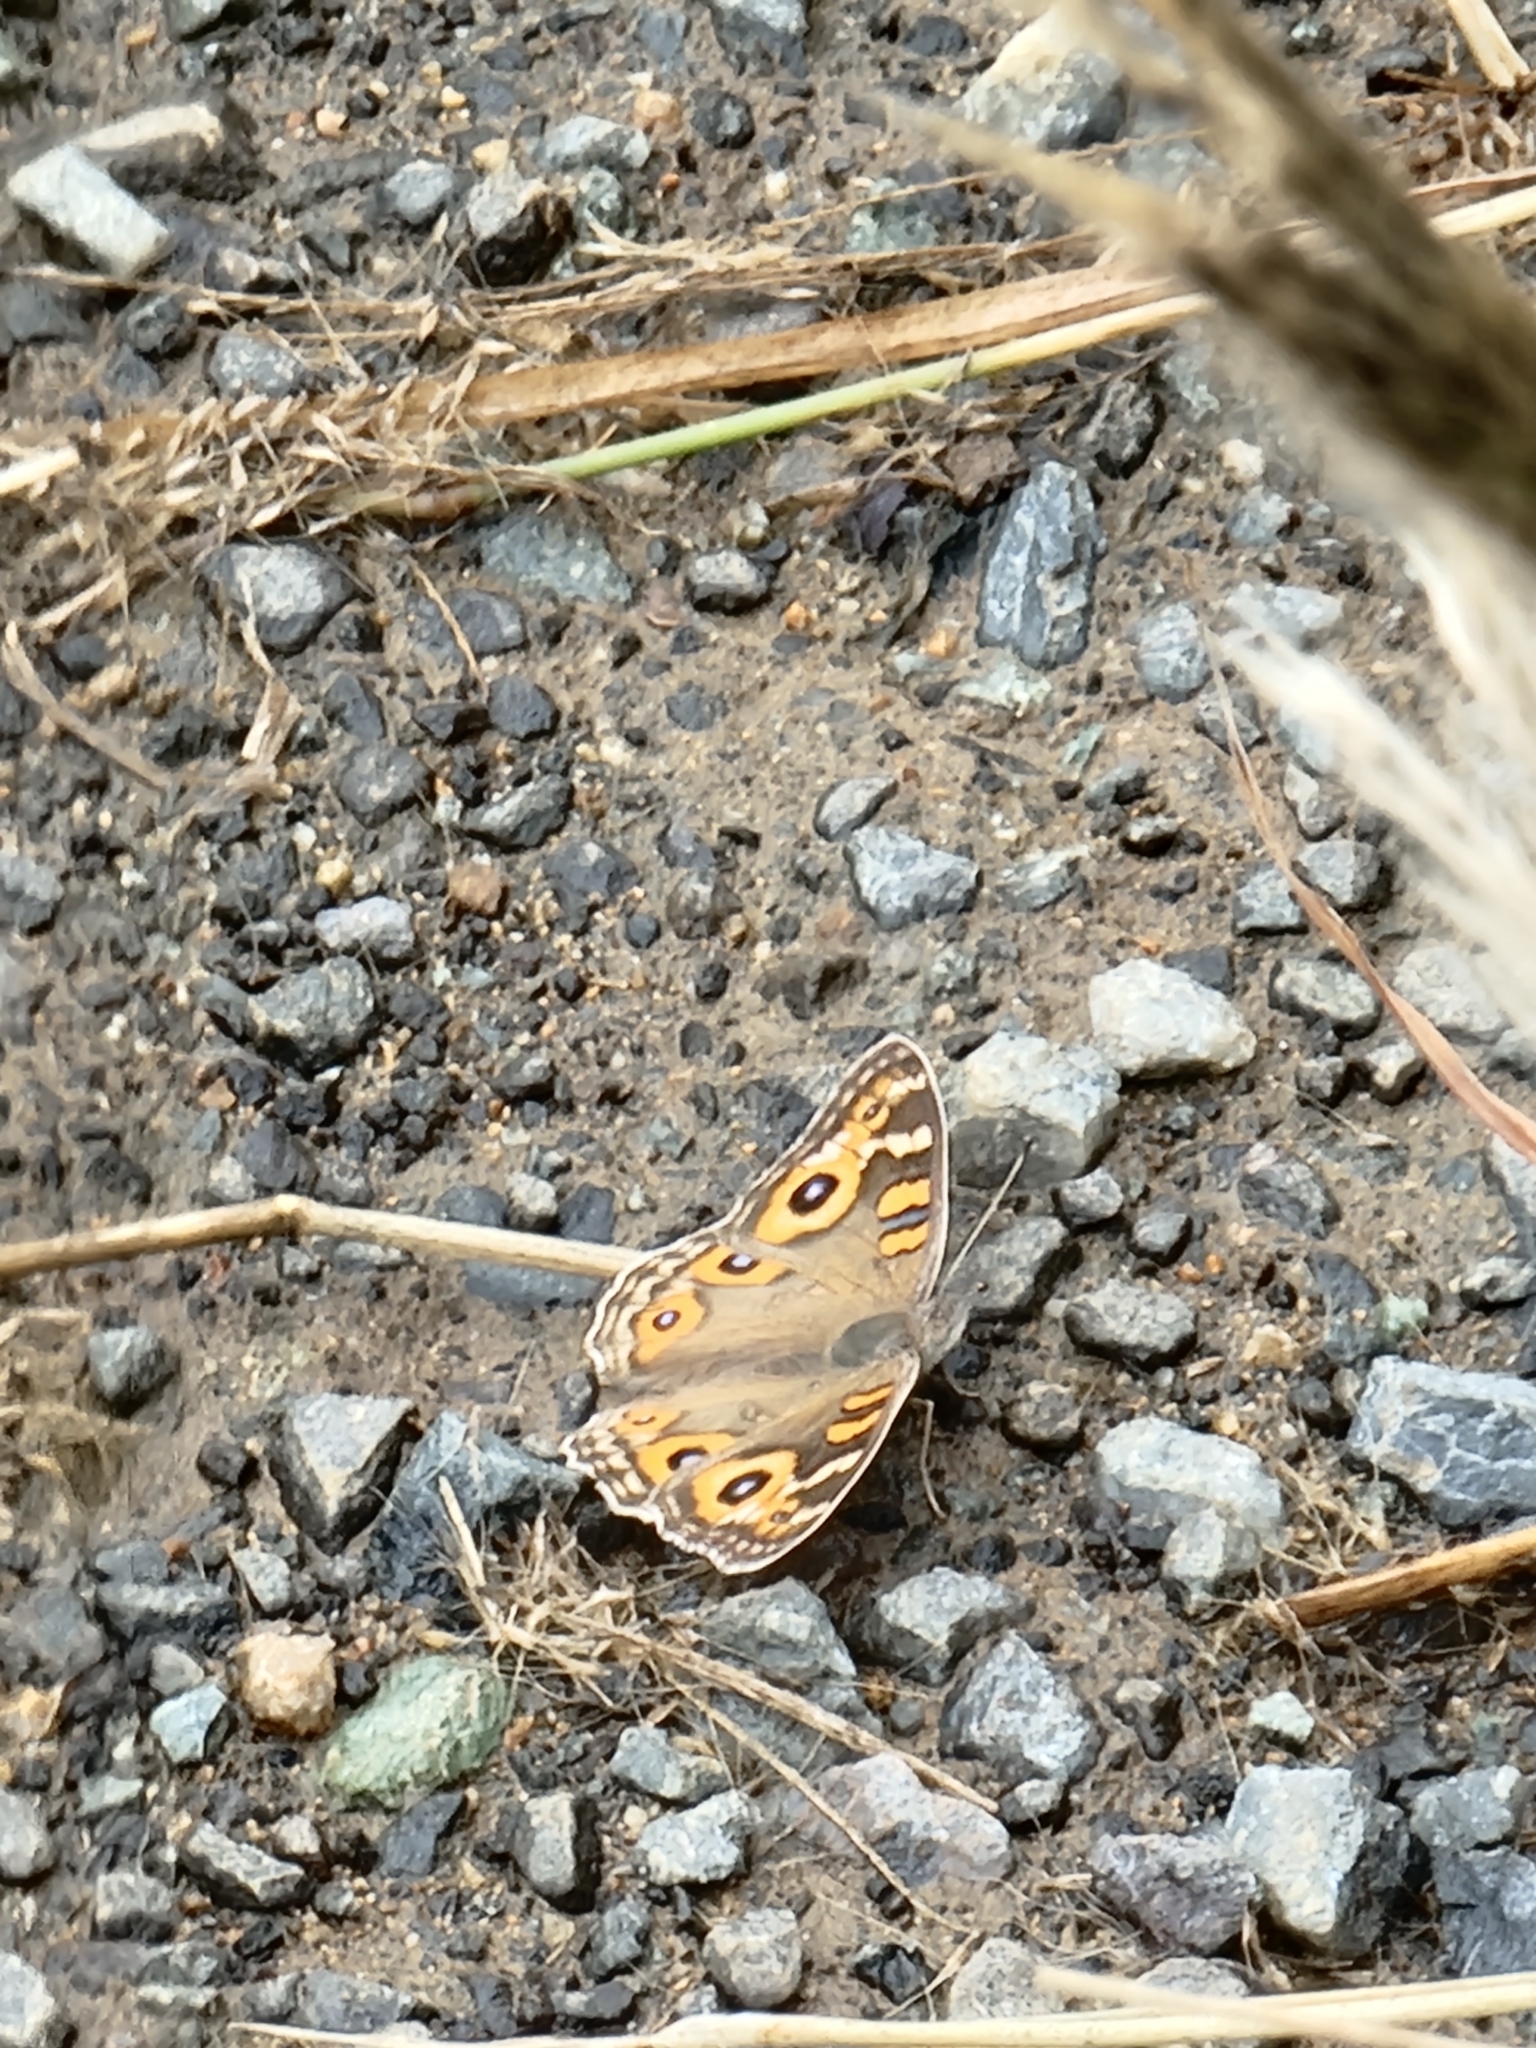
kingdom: Animalia
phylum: Arthropoda
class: Insecta
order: Lepidoptera
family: Nymphalidae
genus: Junonia
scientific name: Junonia villida
